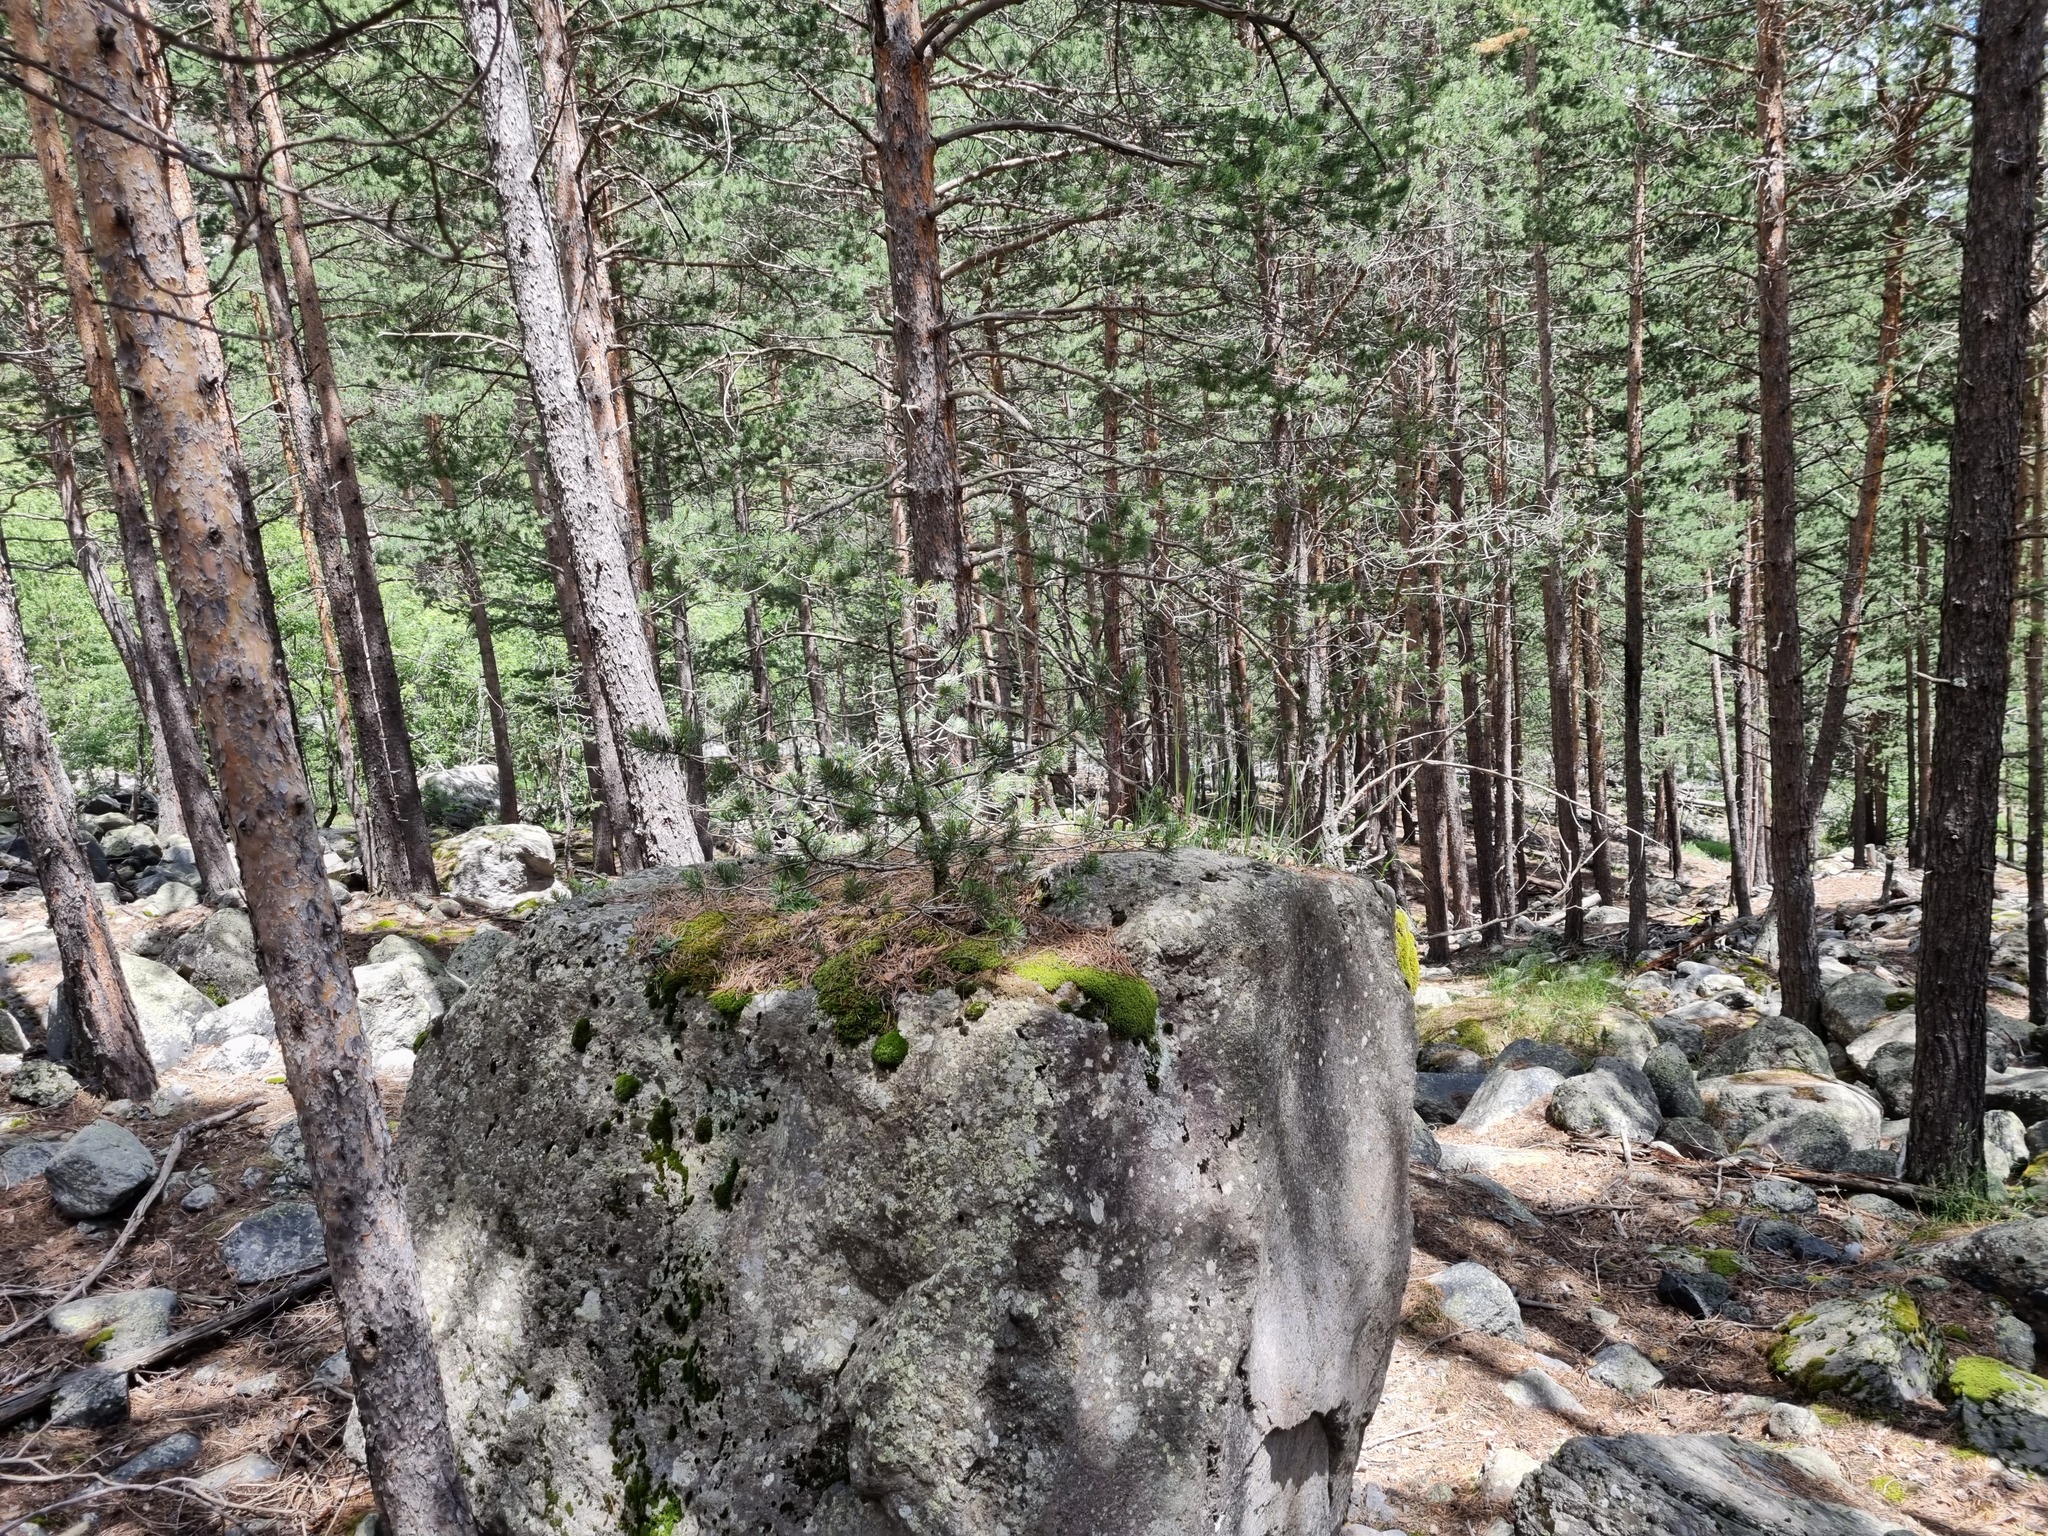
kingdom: Plantae
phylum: Tracheophyta
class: Pinopsida
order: Pinales
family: Pinaceae
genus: Pinus
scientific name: Pinus sylvestris
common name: Scots pine
